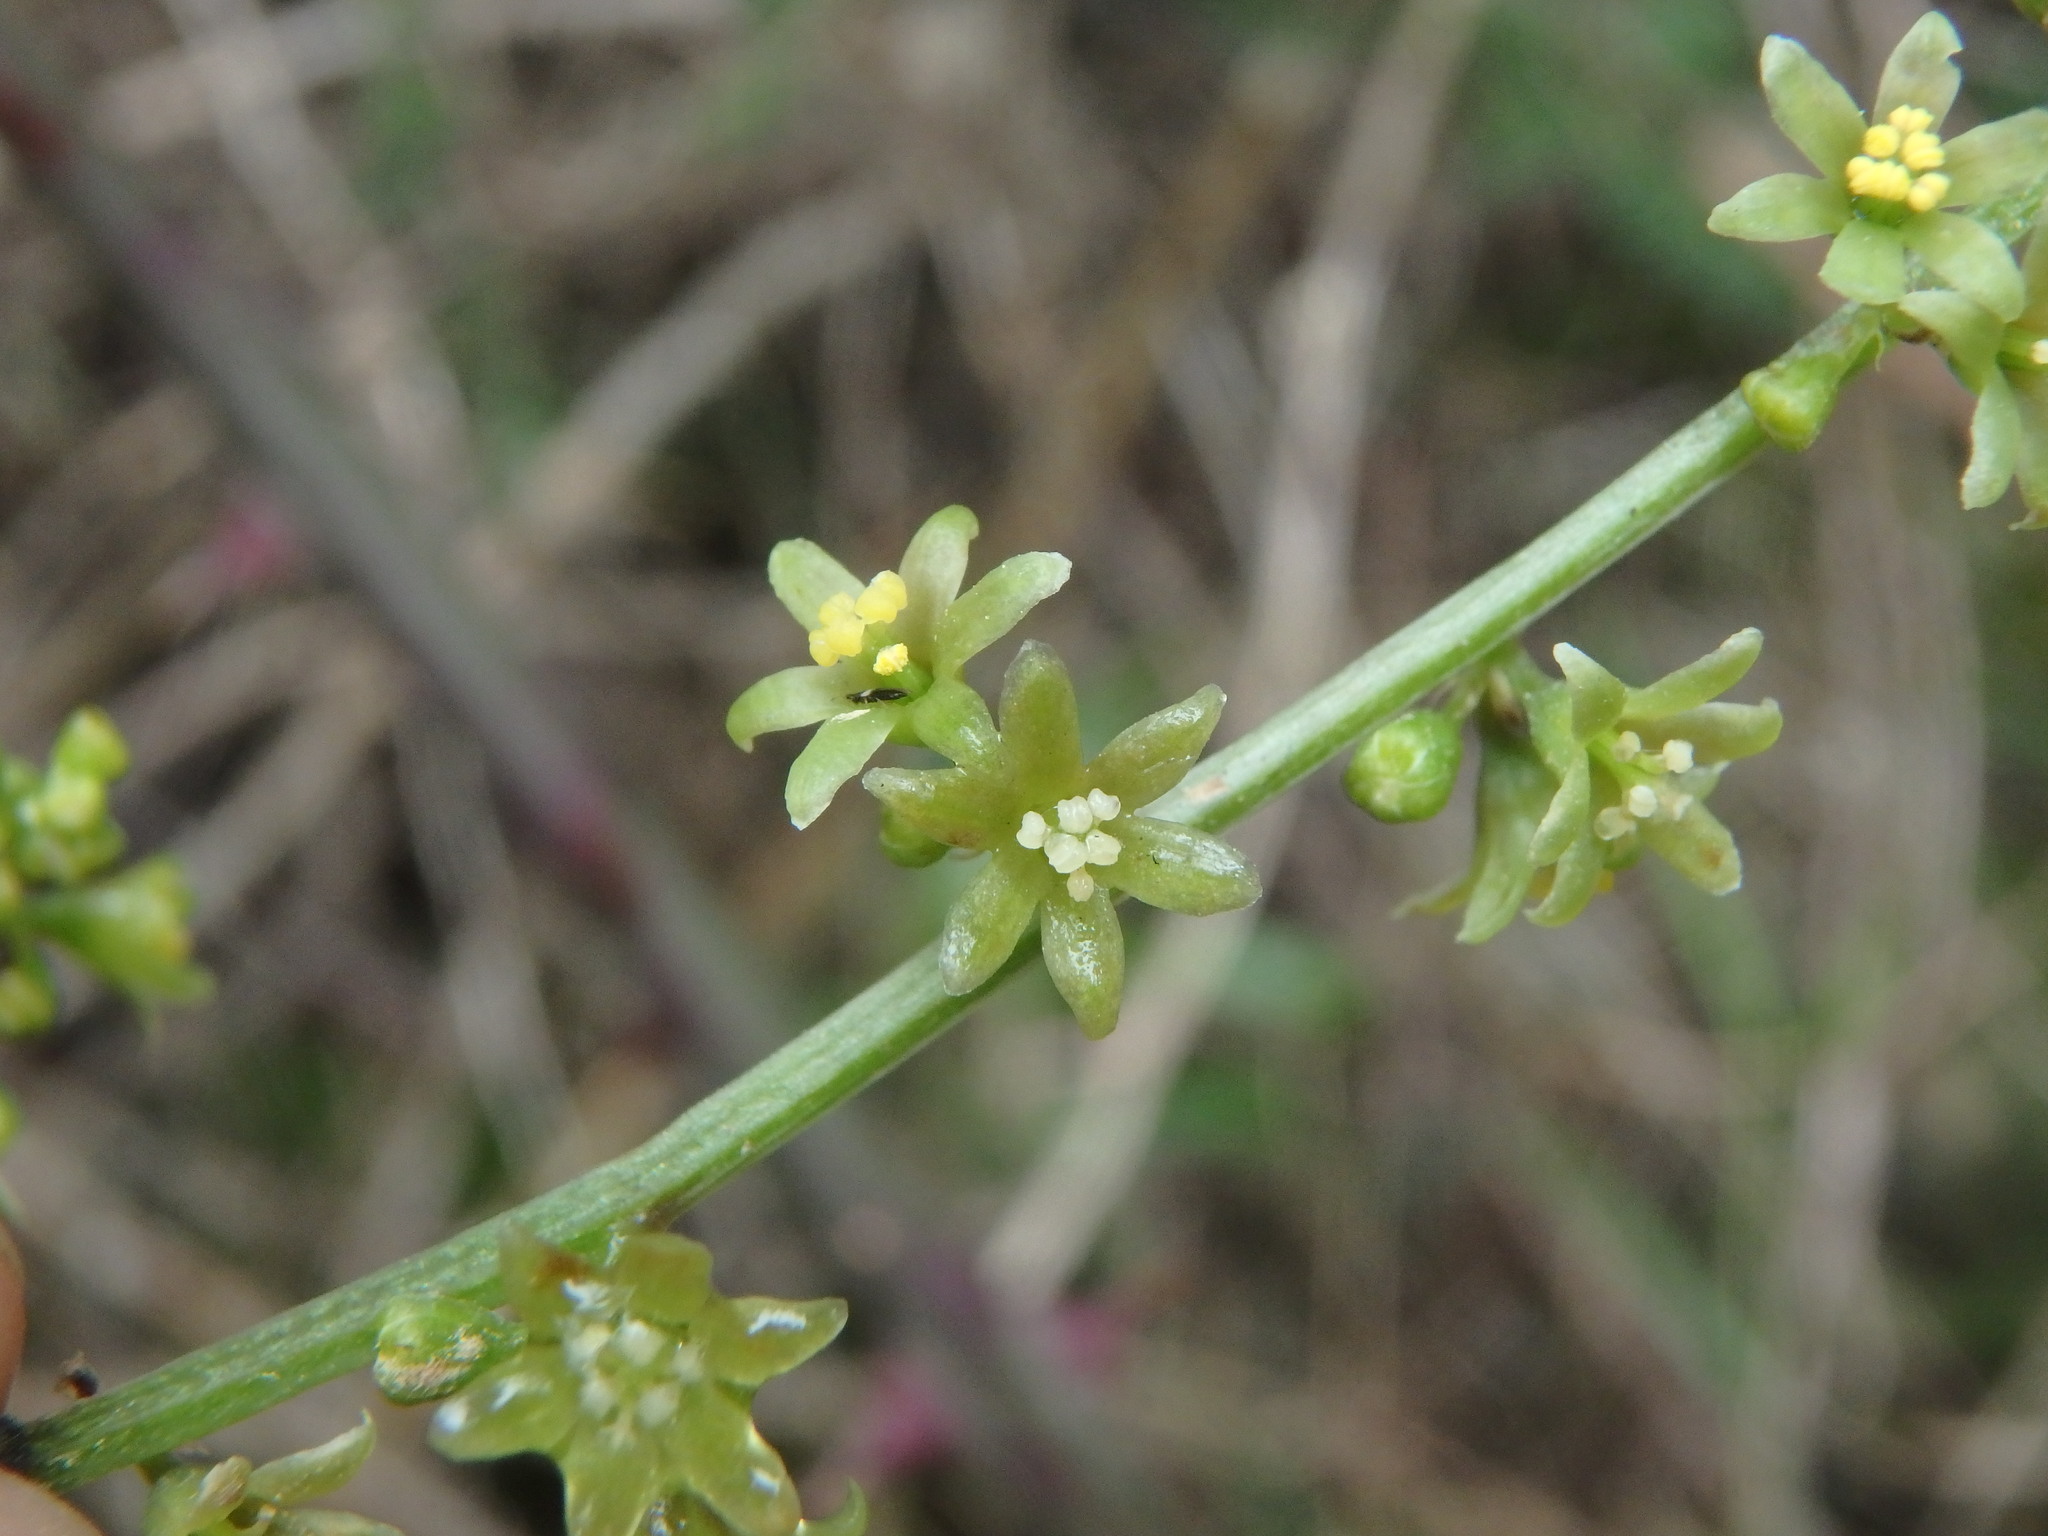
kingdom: Plantae
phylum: Tracheophyta
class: Liliopsida
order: Dioscoreales
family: Dioscoreaceae
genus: Dioscorea
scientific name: Dioscorea communis
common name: Black-bindweed
